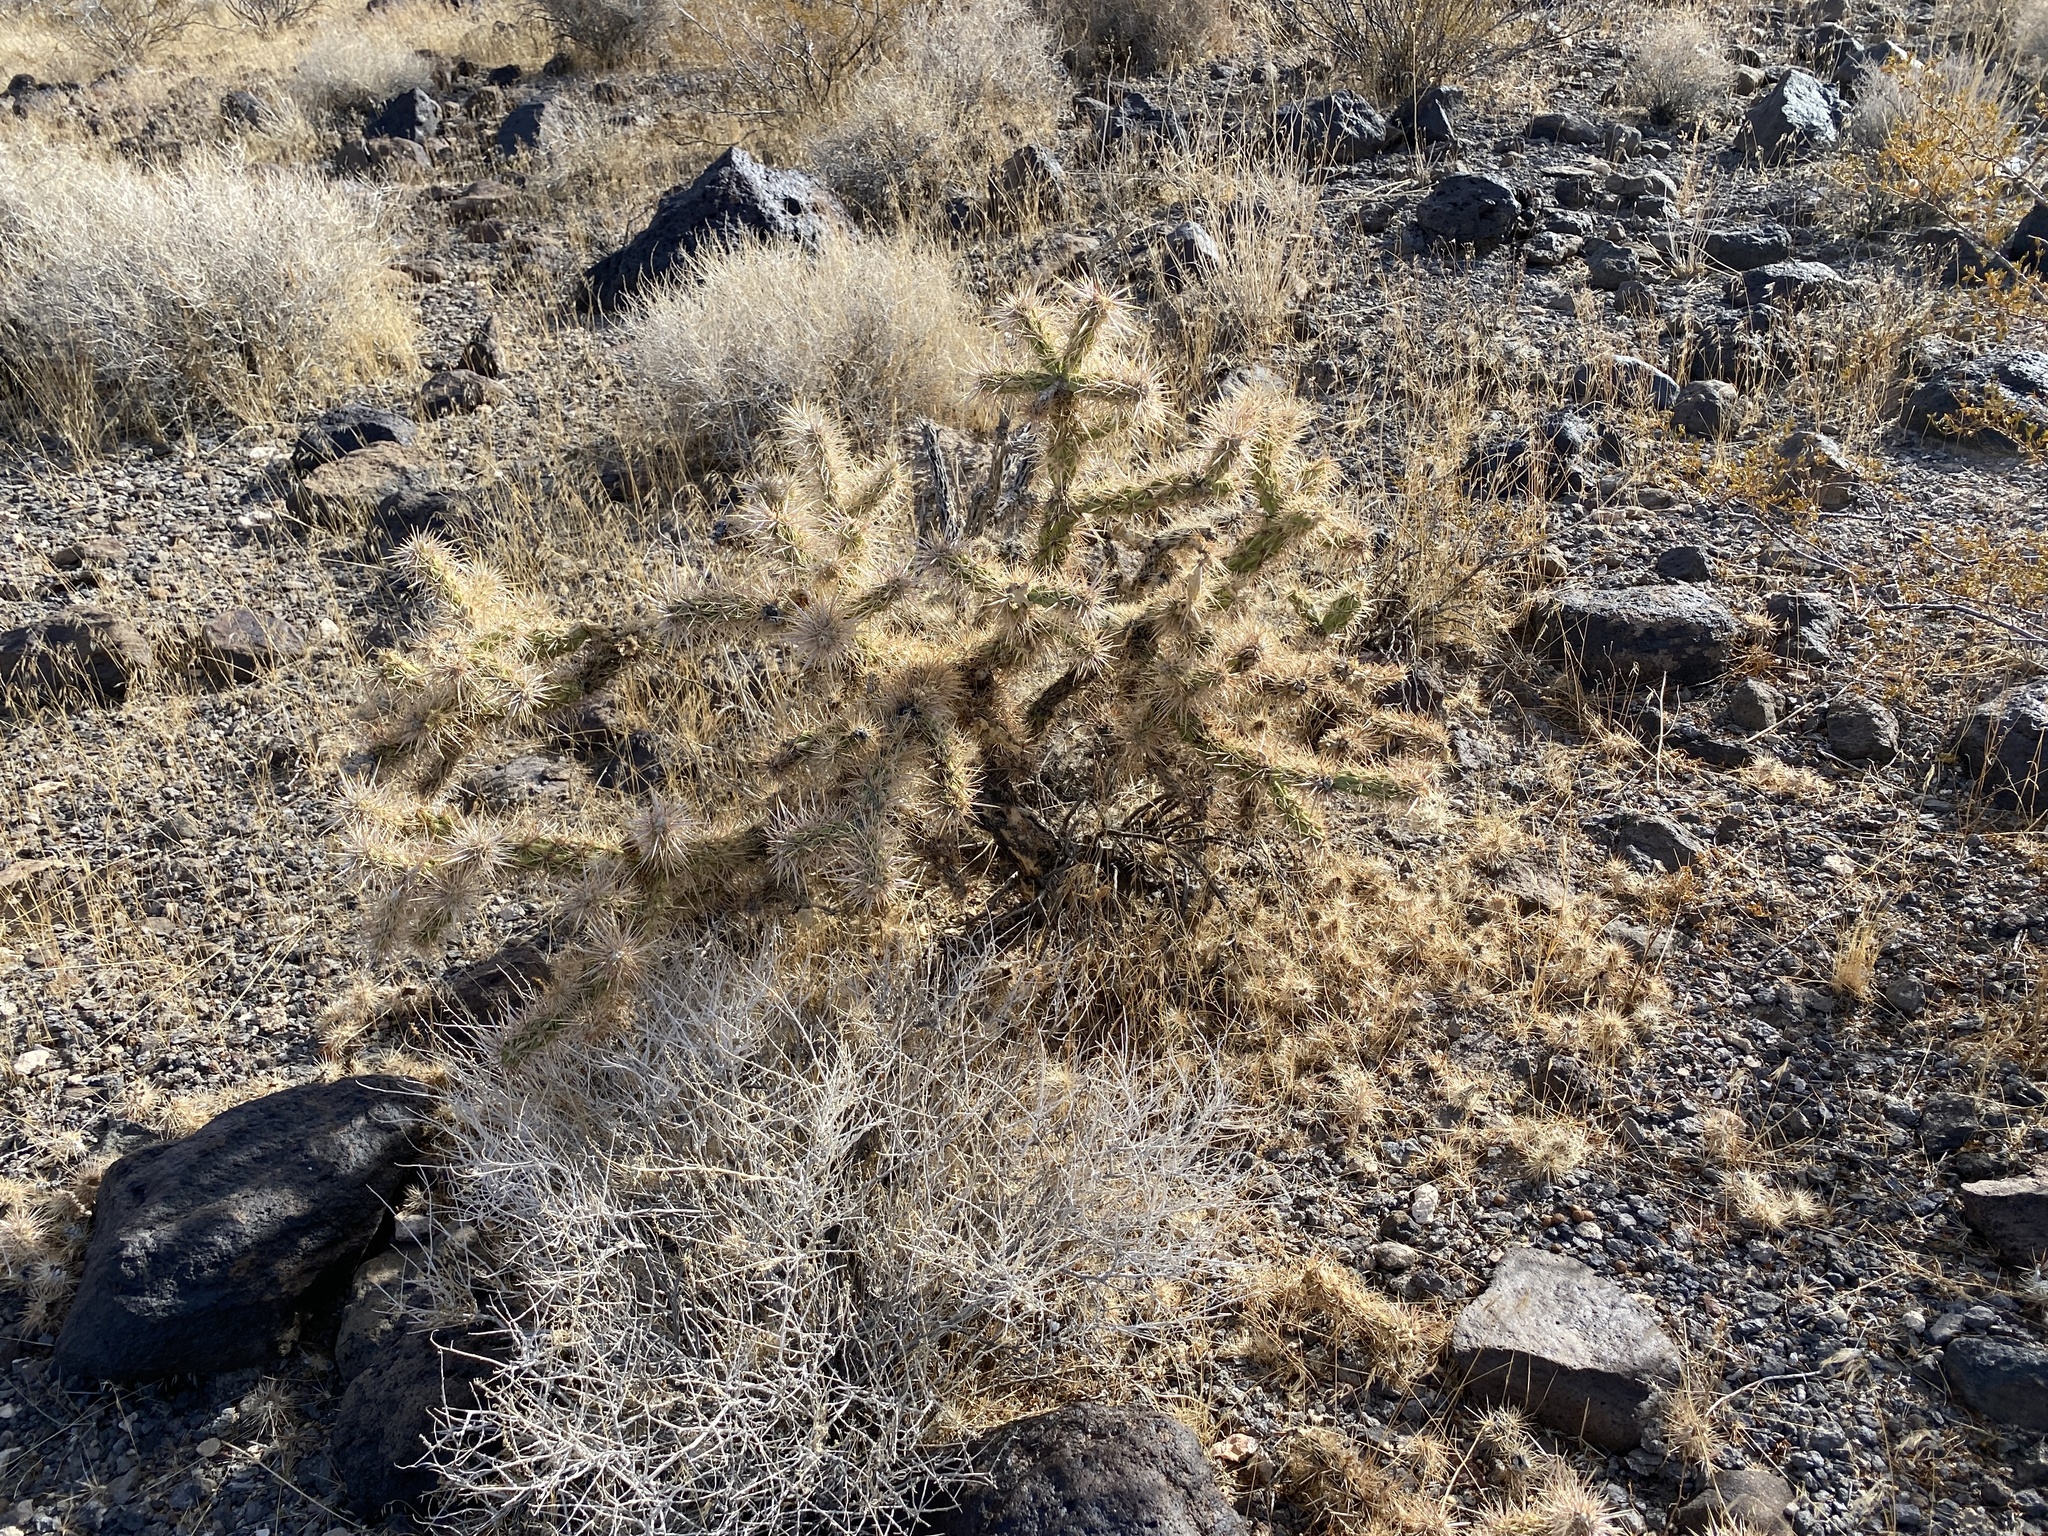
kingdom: Plantae
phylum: Tracheophyta
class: Magnoliopsida
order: Caryophyllales
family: Cactaceae
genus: Cylindropuntia
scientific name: Cylindropuntia echinocarpa
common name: Ground cholla
